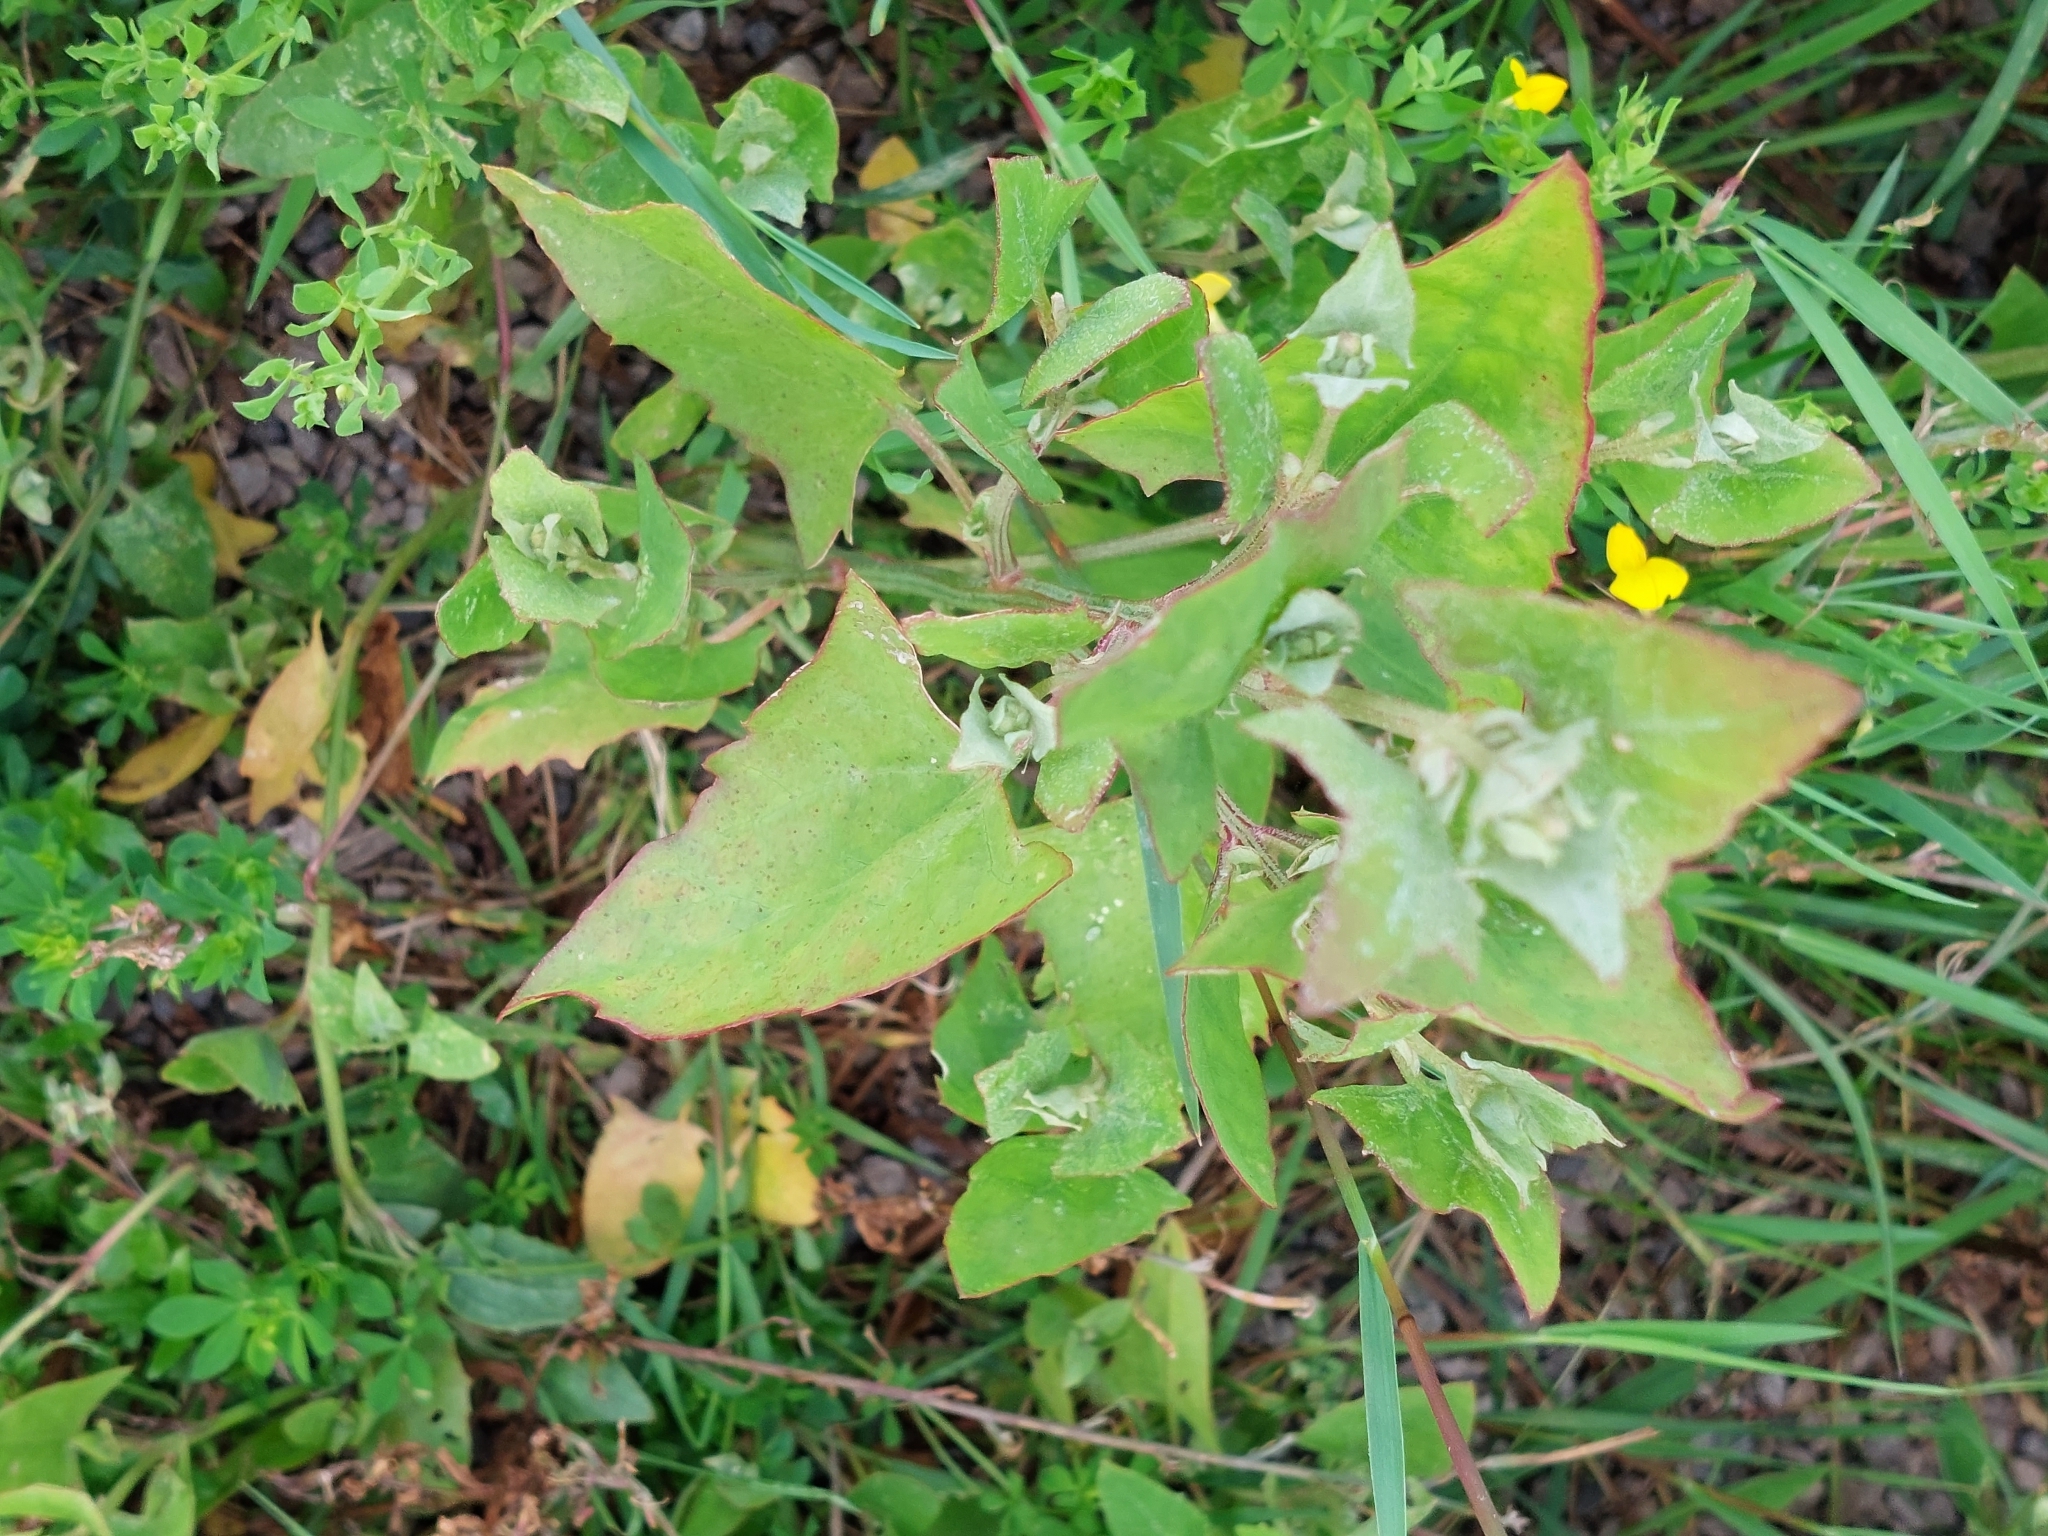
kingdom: Plantae
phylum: Tracheophyta
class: Magnoliopsida
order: Caryophyllales
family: Amaranthaceae
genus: Atriplex
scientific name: Atriplex prostrata
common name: Spear-leaved orache
